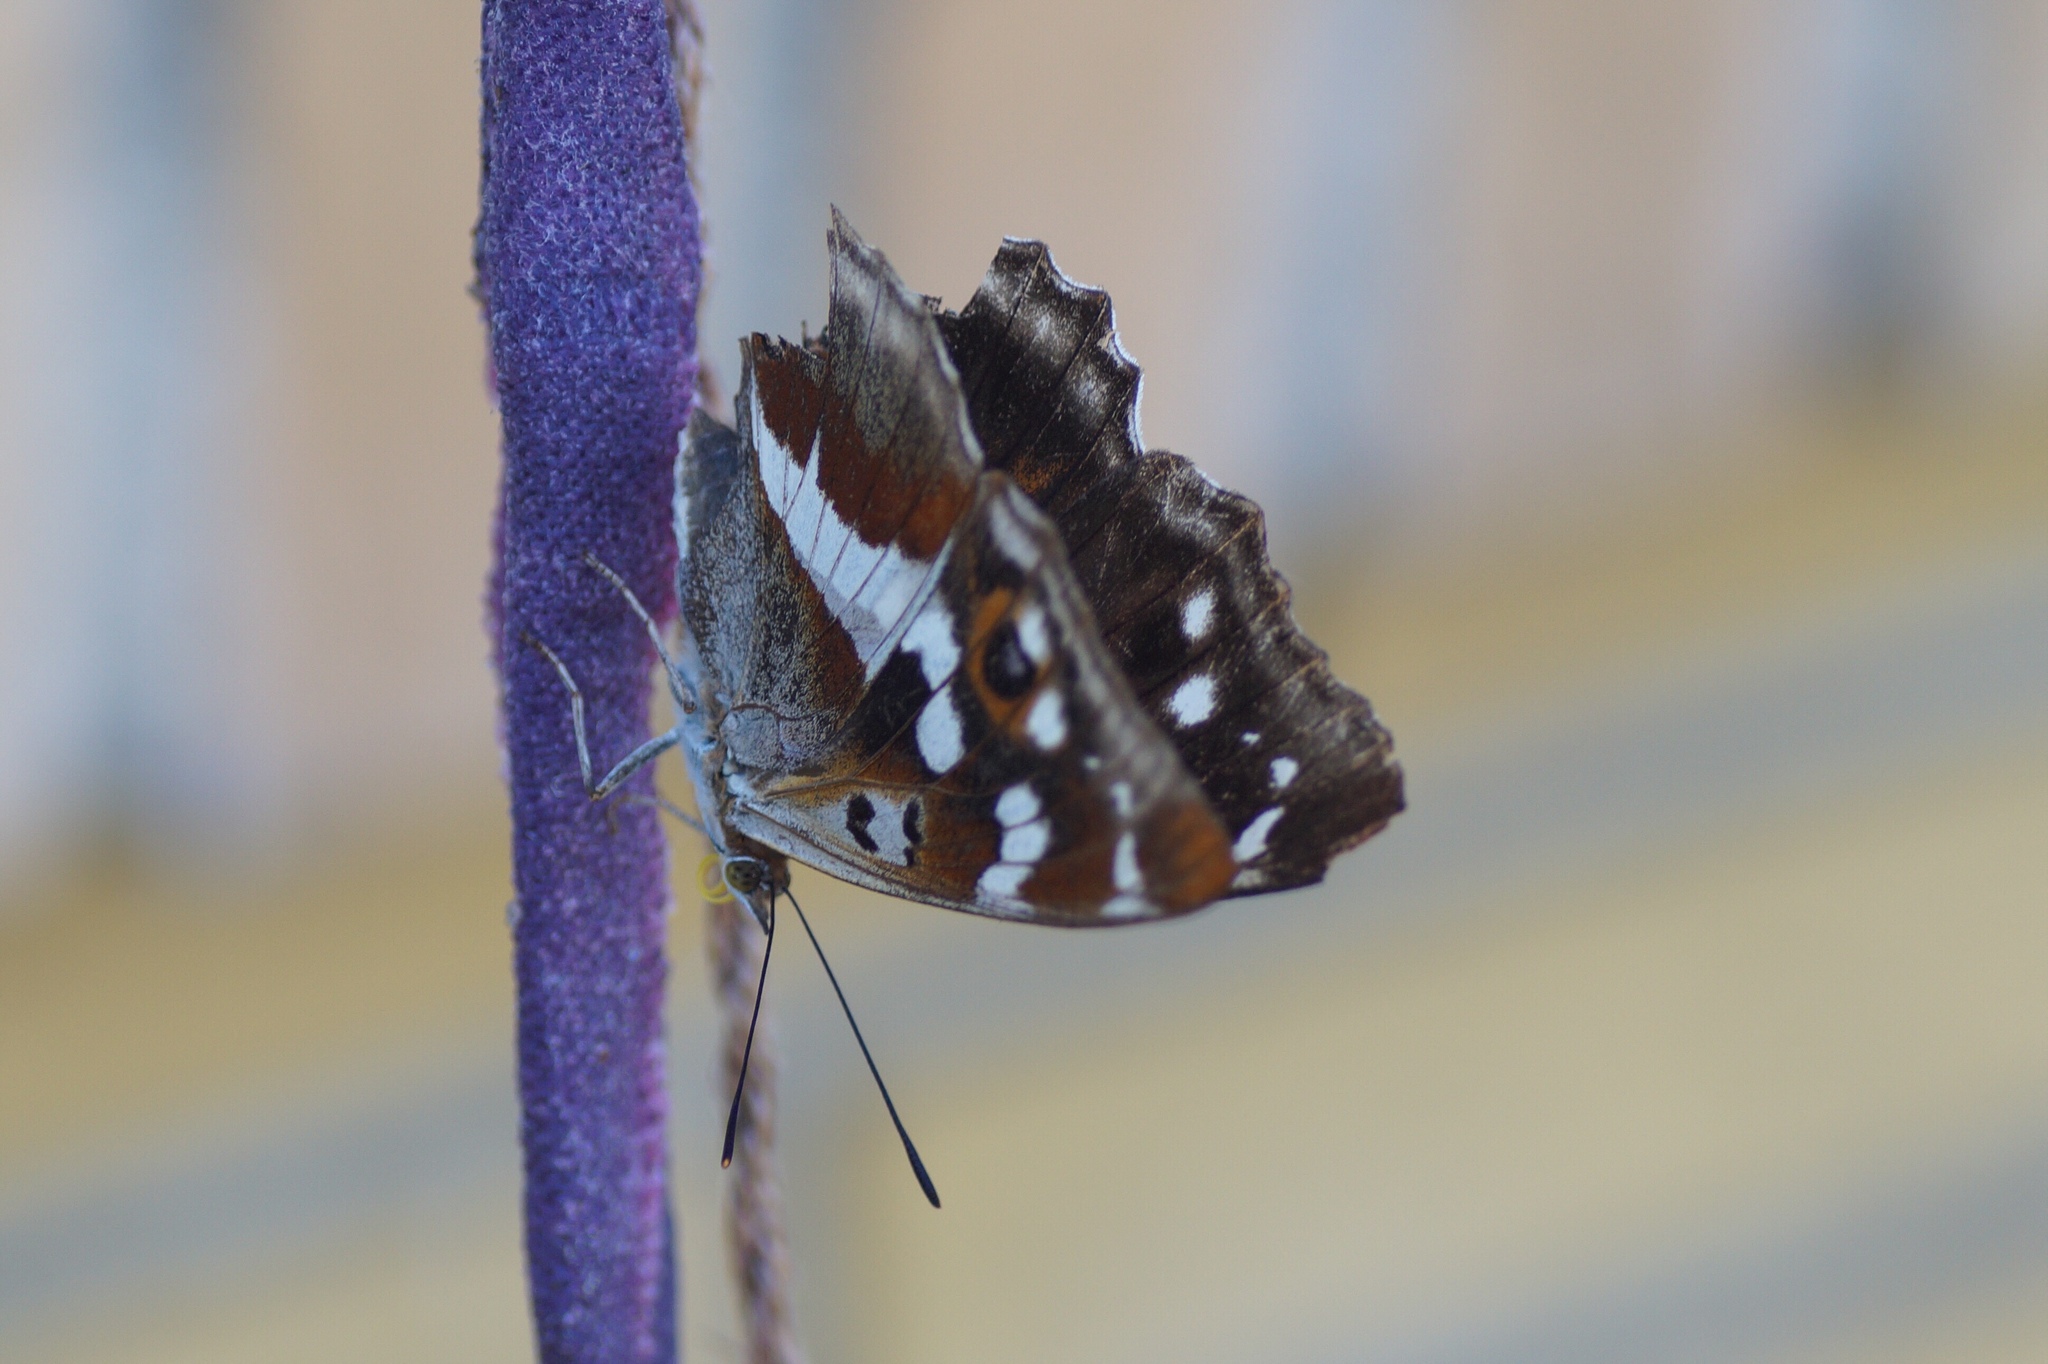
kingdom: Animalia
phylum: Arthropoda
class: Insecta
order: Lepidoptera
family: Nymphalidae
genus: Apatura
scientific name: Apatura iris
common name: Purple emperor
